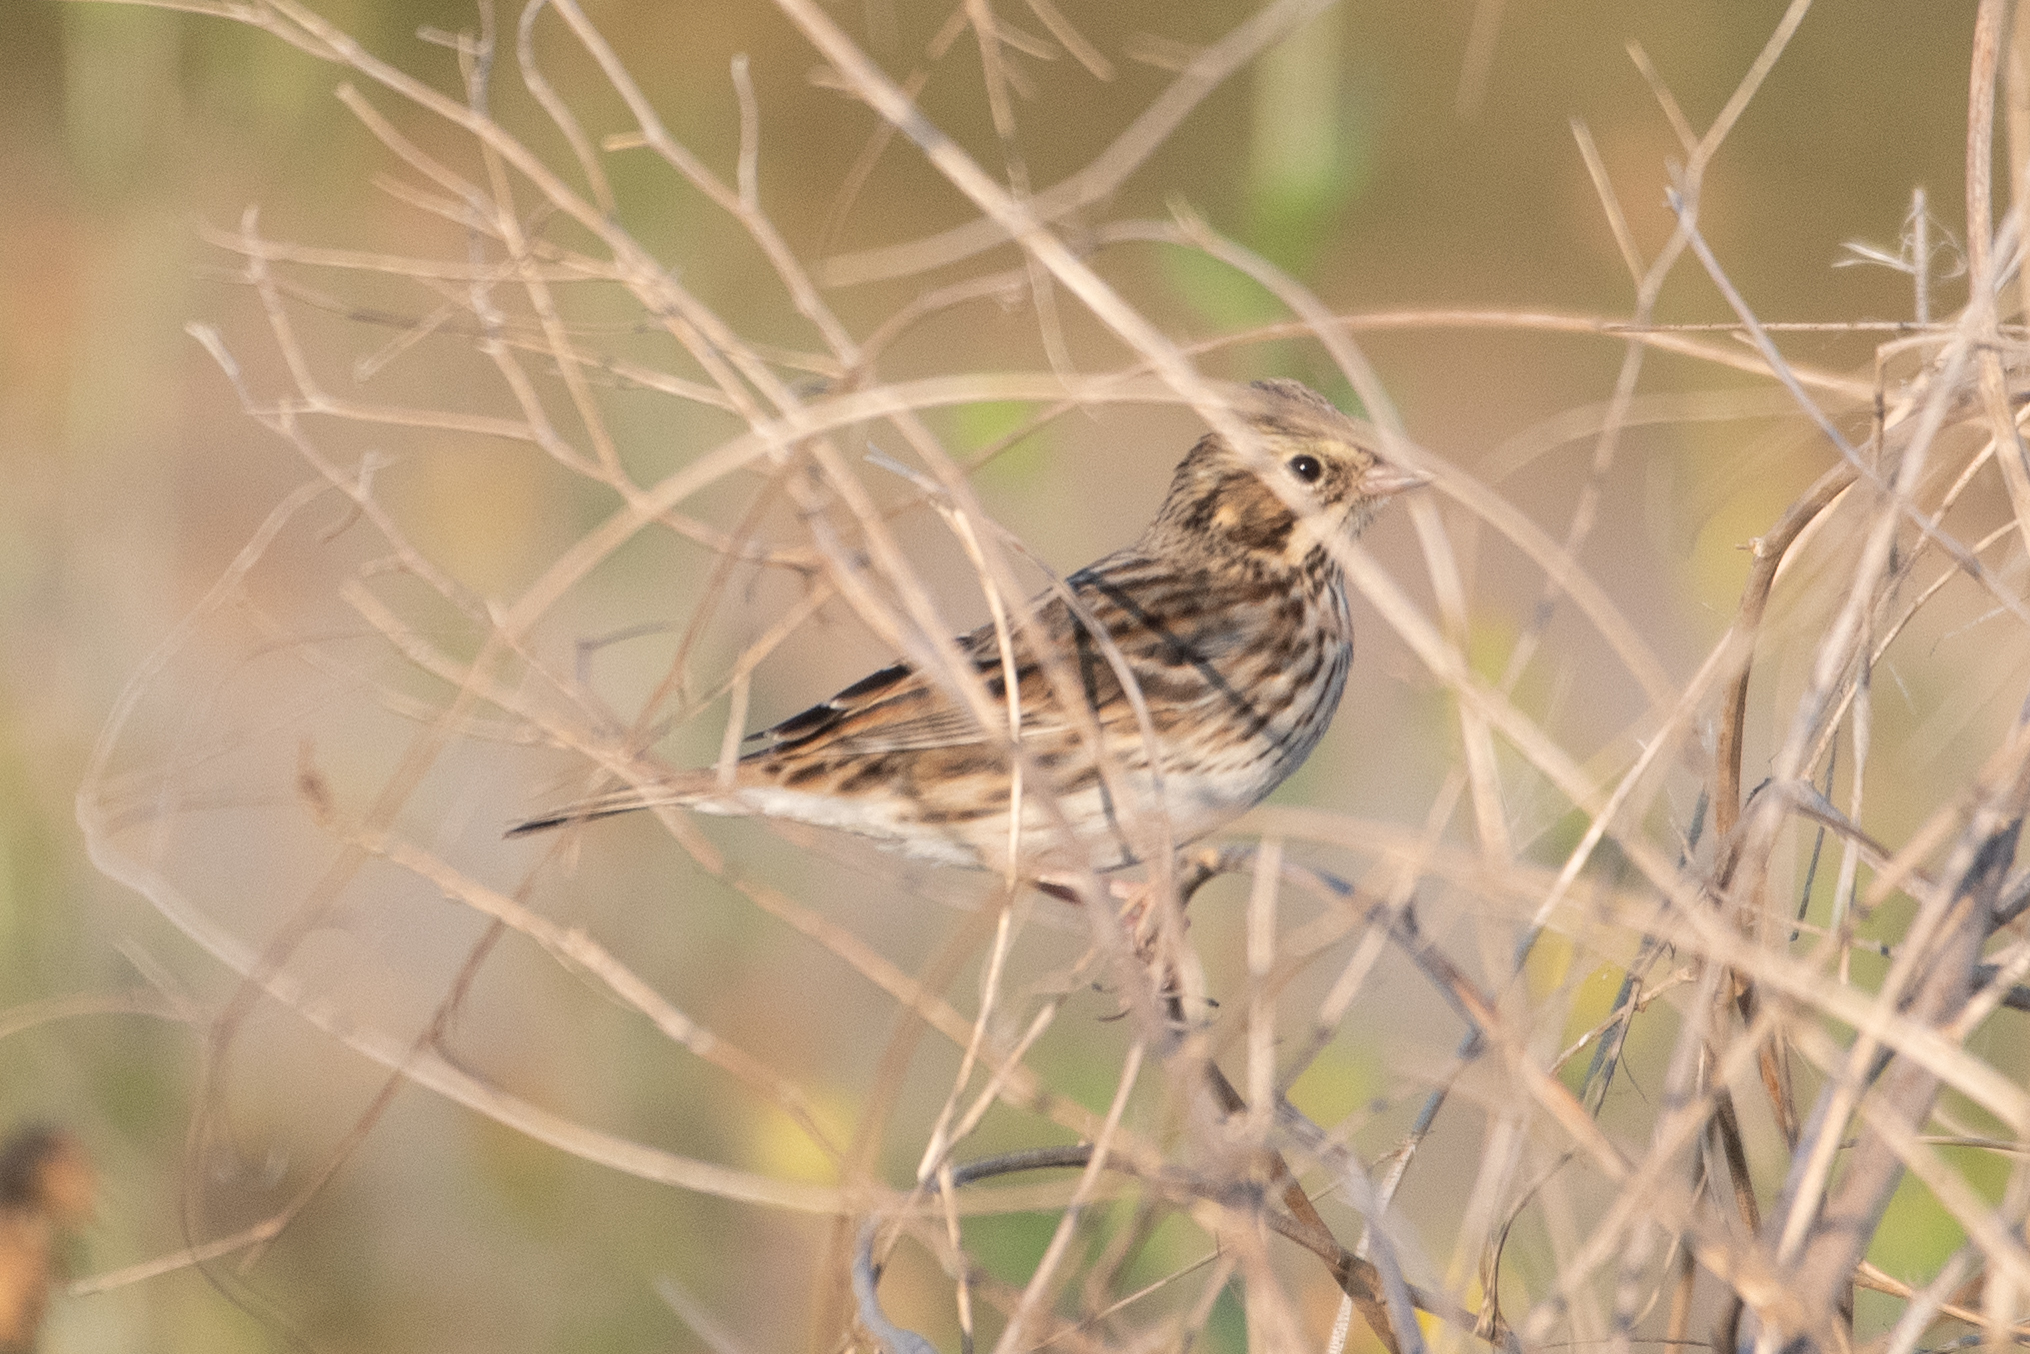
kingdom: Animalia
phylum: Chordata
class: Aves
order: Passeriformes
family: Passerellidae
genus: Passerculus
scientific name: Passerculus sandwichensis
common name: Savannah sparrow
